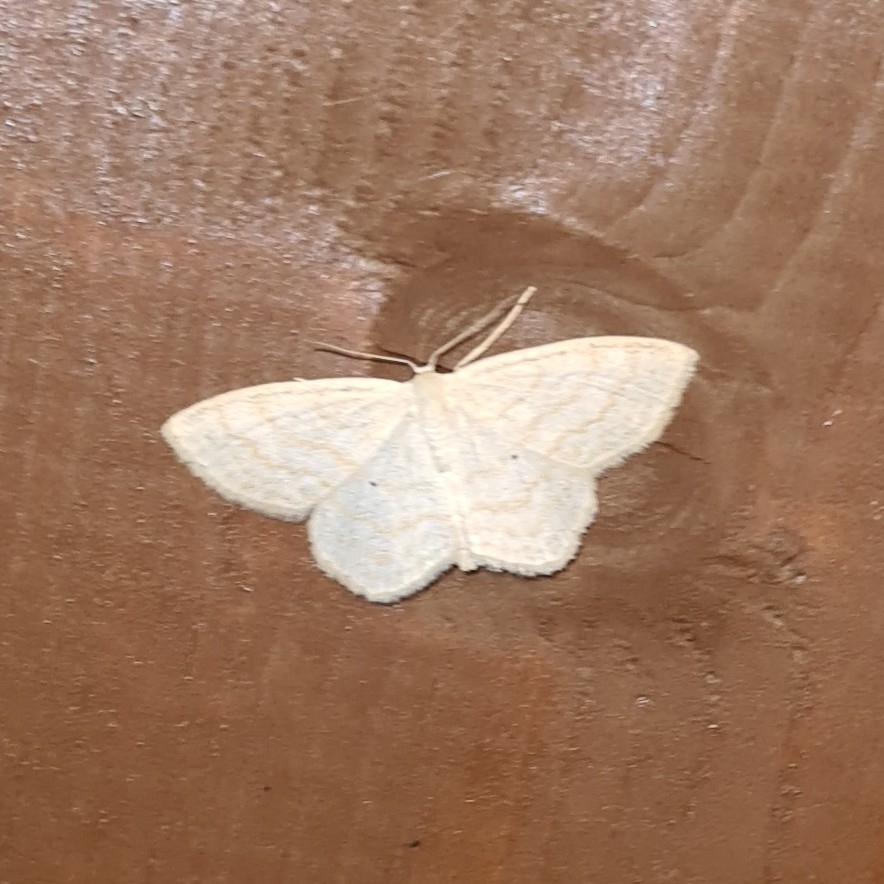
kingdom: Animalia
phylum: Arthropoda
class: Insecta
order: Lepidoptera
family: Geometridae
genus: Scopula
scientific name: Scopula immutata
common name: Lesser cream wave
